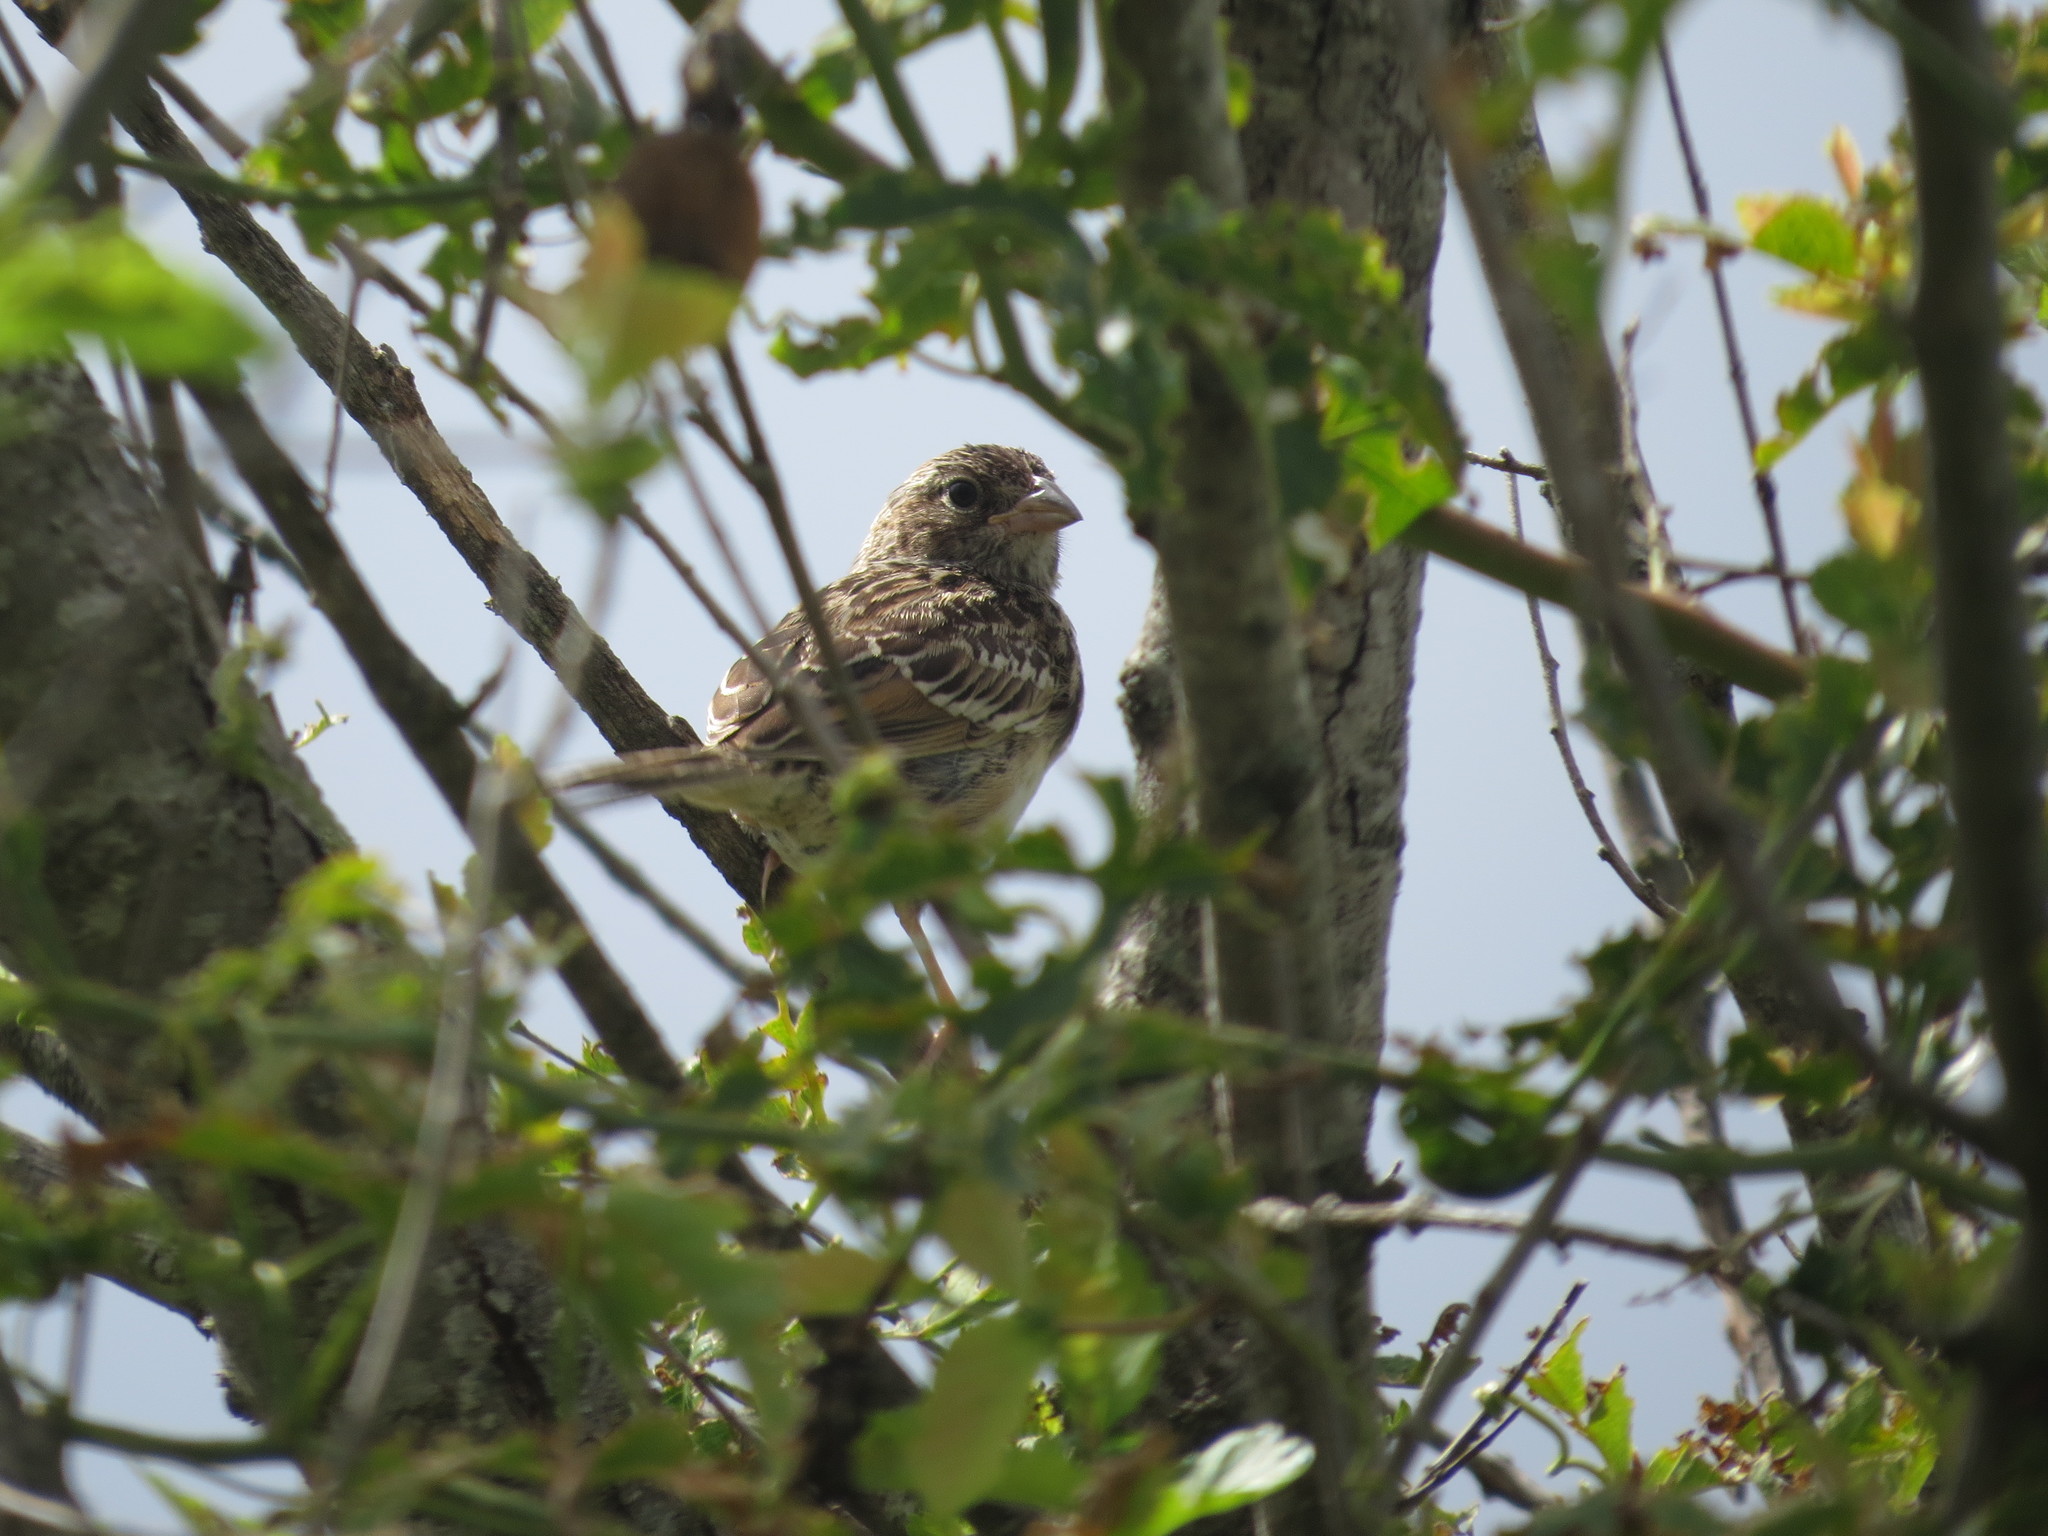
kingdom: Animalia
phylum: Chordata
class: Aves
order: Passeriformes
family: Passerellidae
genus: Zonotrichia
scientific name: Zonotrichia capensis
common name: Rufous-collared sparrow
